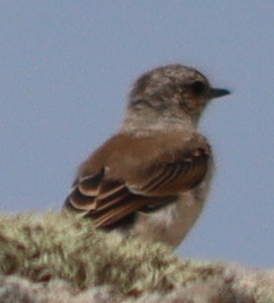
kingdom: Animalia
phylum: Chordata
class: Aves
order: Passeriformes
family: Muscicapidae
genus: Oenanthe
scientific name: Oenanthe oenanthe
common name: Northern wheatear
